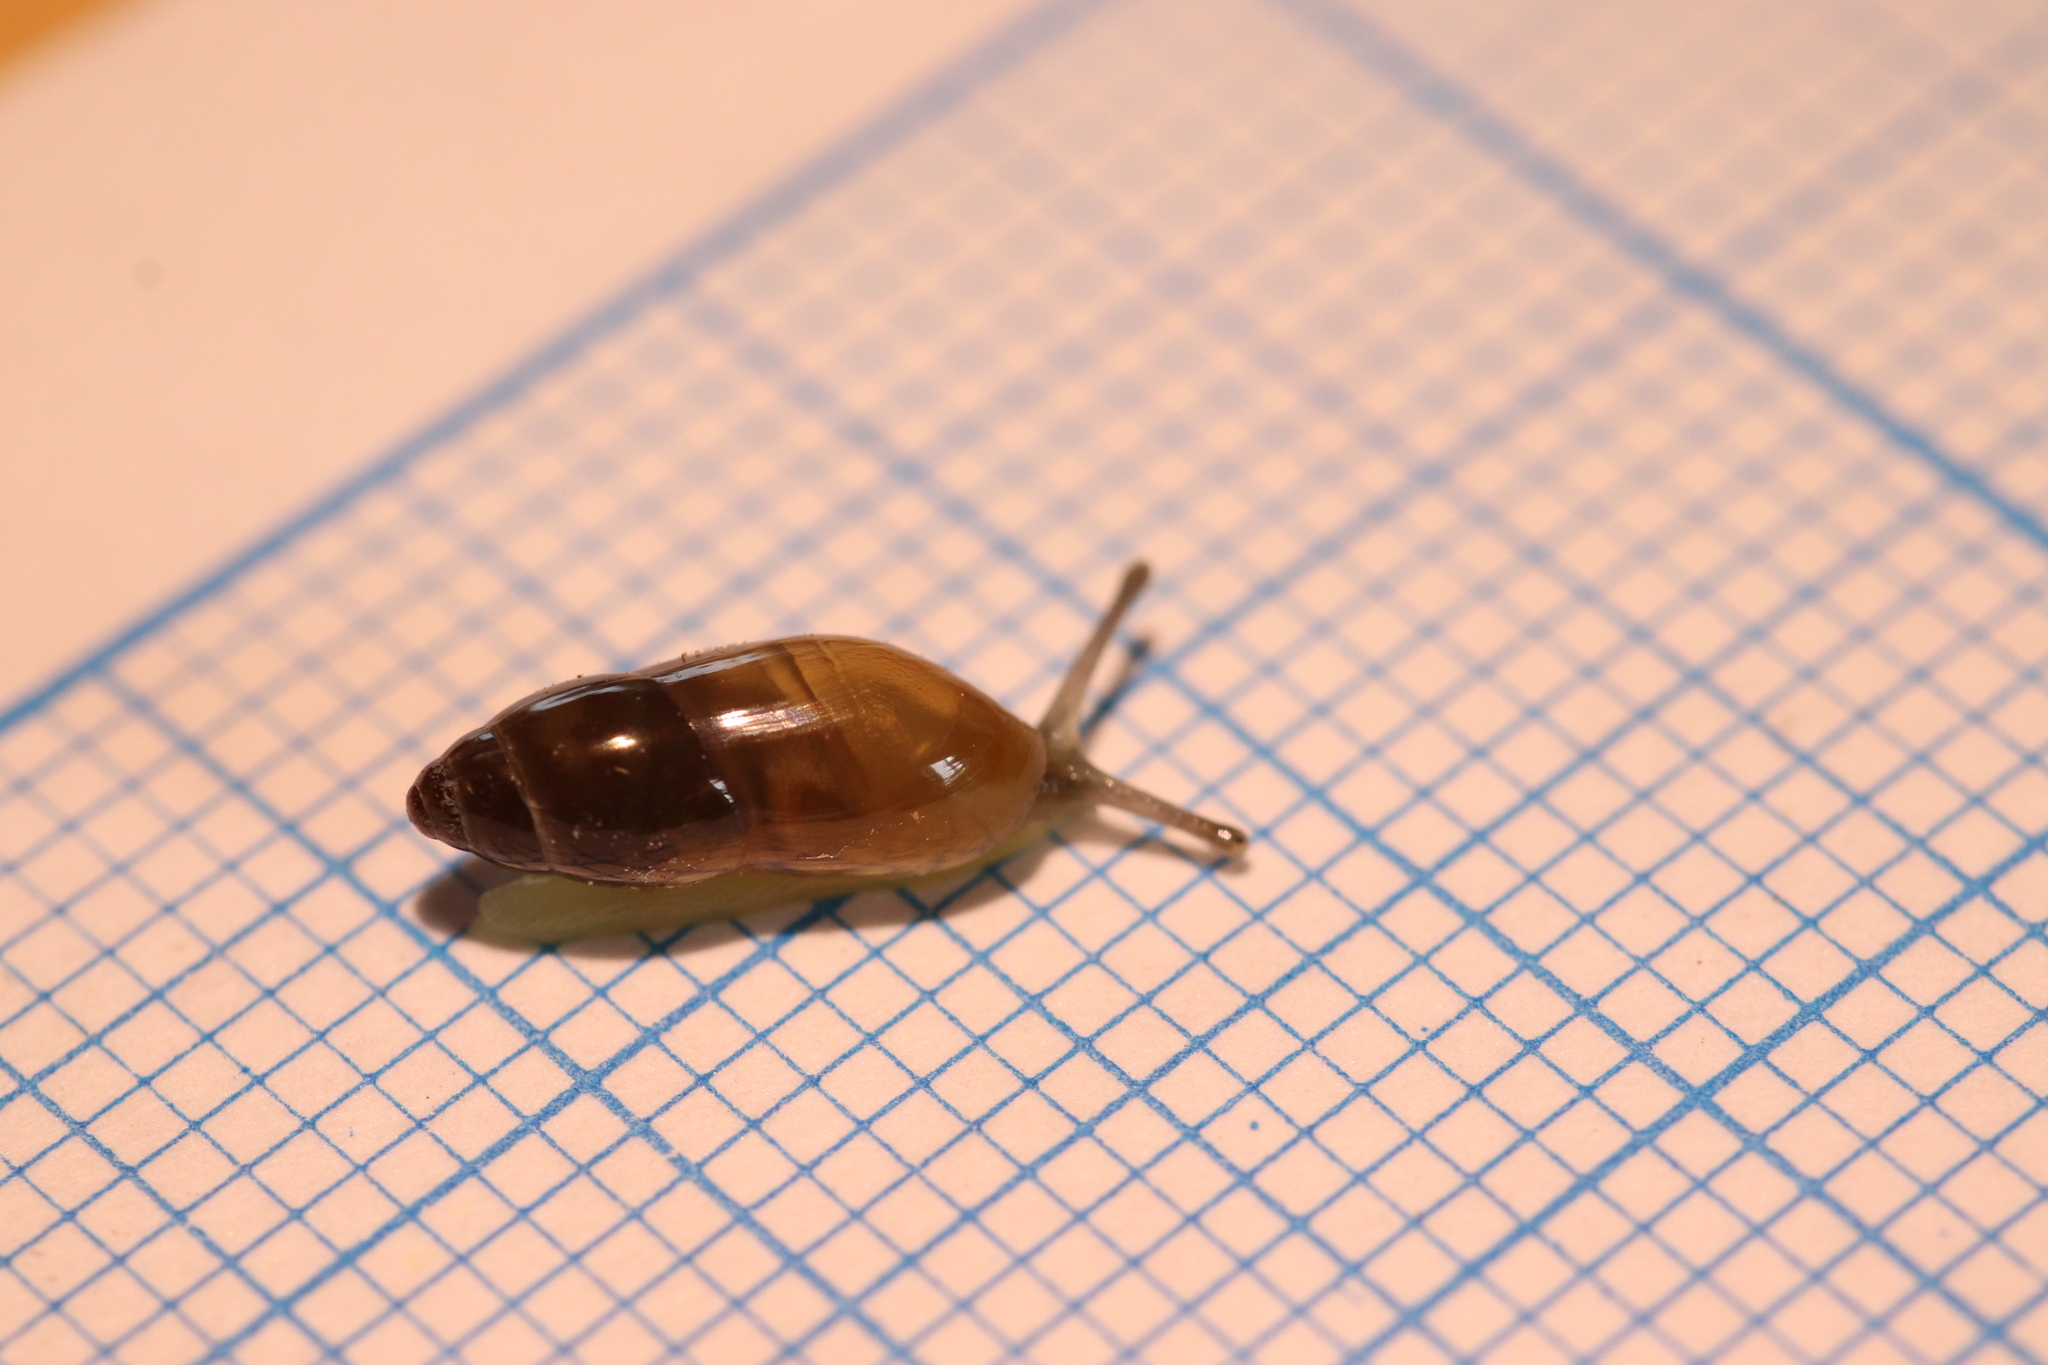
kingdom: Animalia
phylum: Mollusca
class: Gastropoda
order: Stylommatophora
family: Ferussaciidae
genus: Ferussacia
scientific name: Ferussacia folliculum
